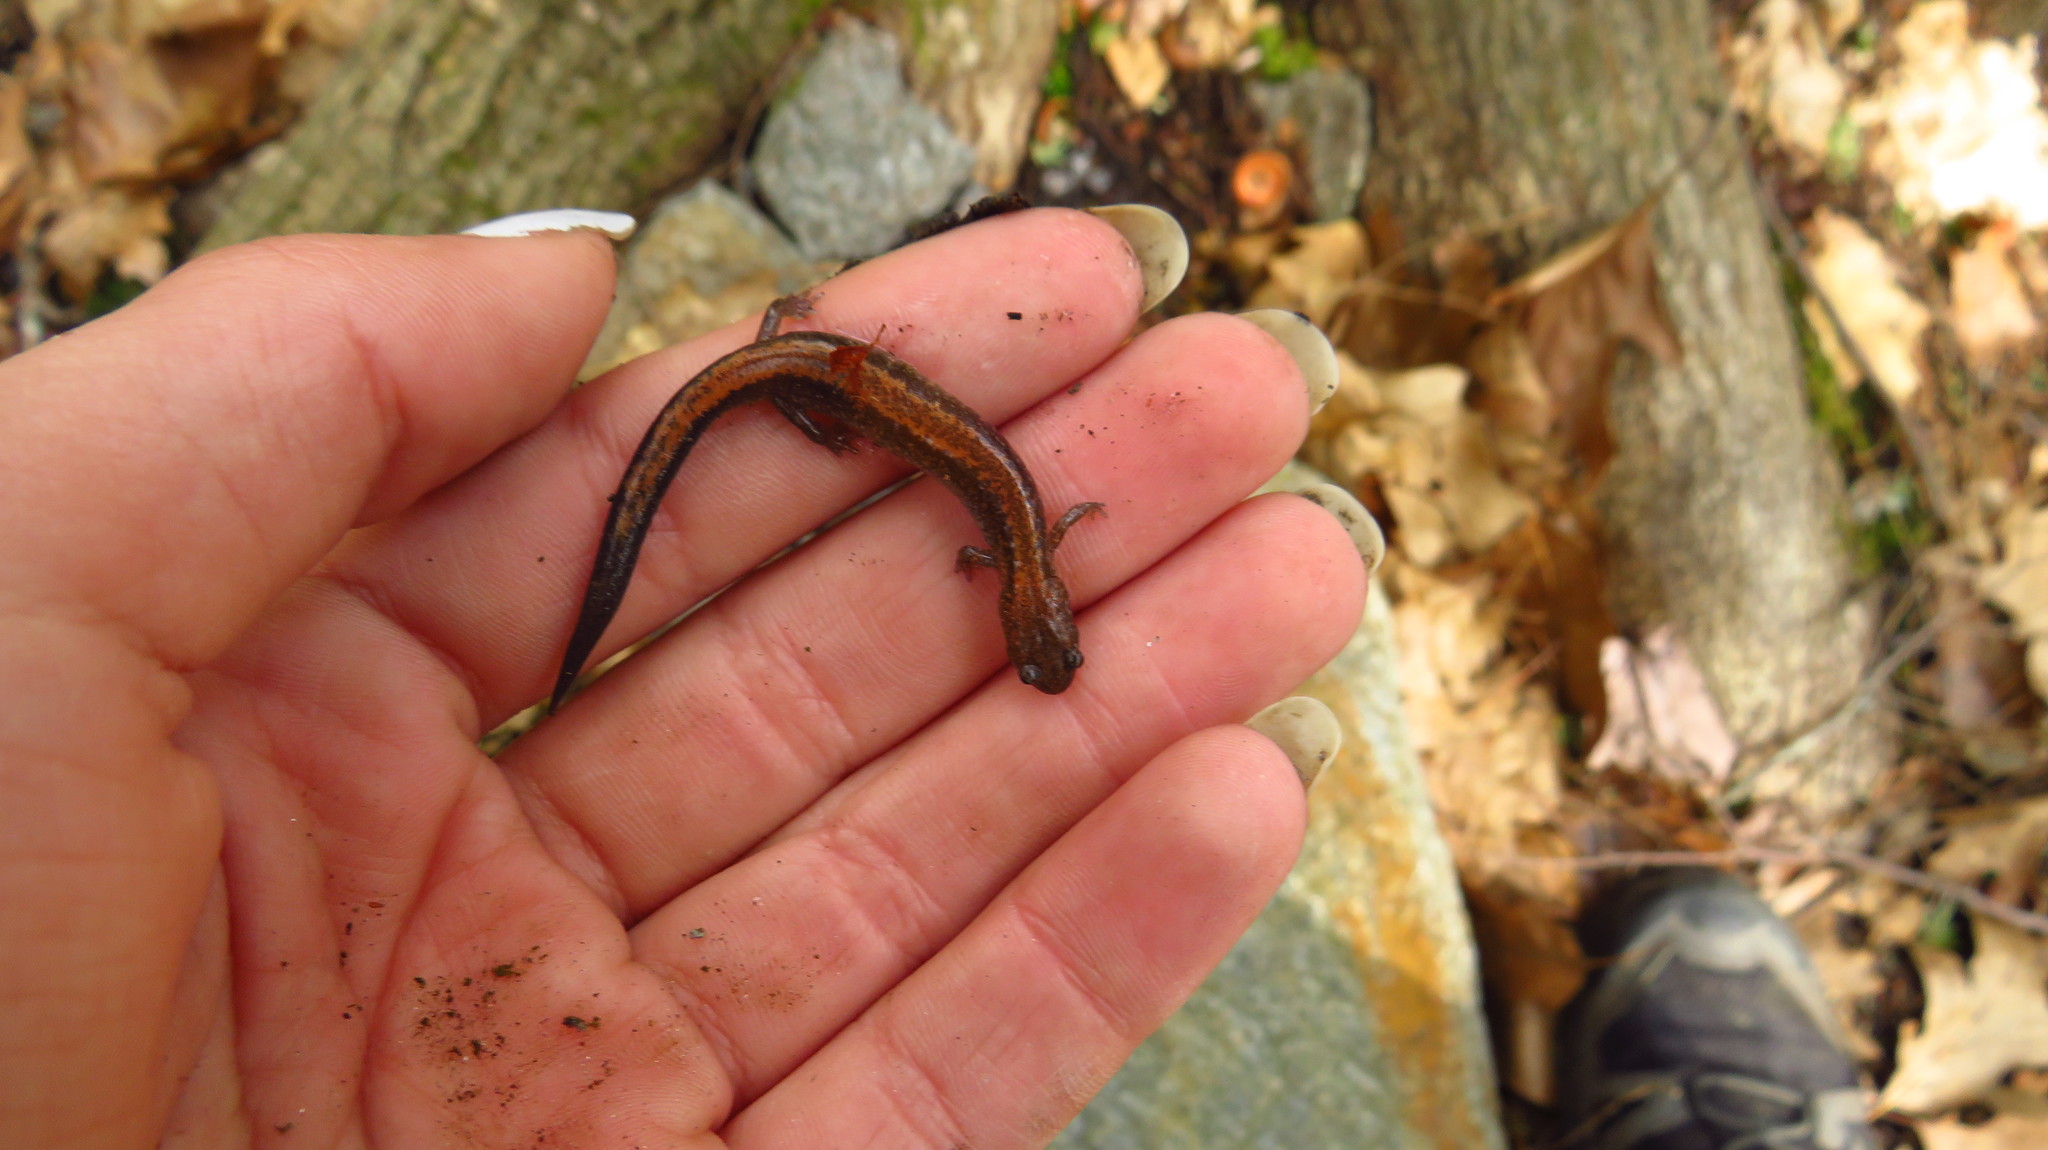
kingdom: Animalia
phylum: Chordata
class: Amphibia
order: Caudata
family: Plethodontidae
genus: Plethodon
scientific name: Plethodon cinereus
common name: Redback salamander
